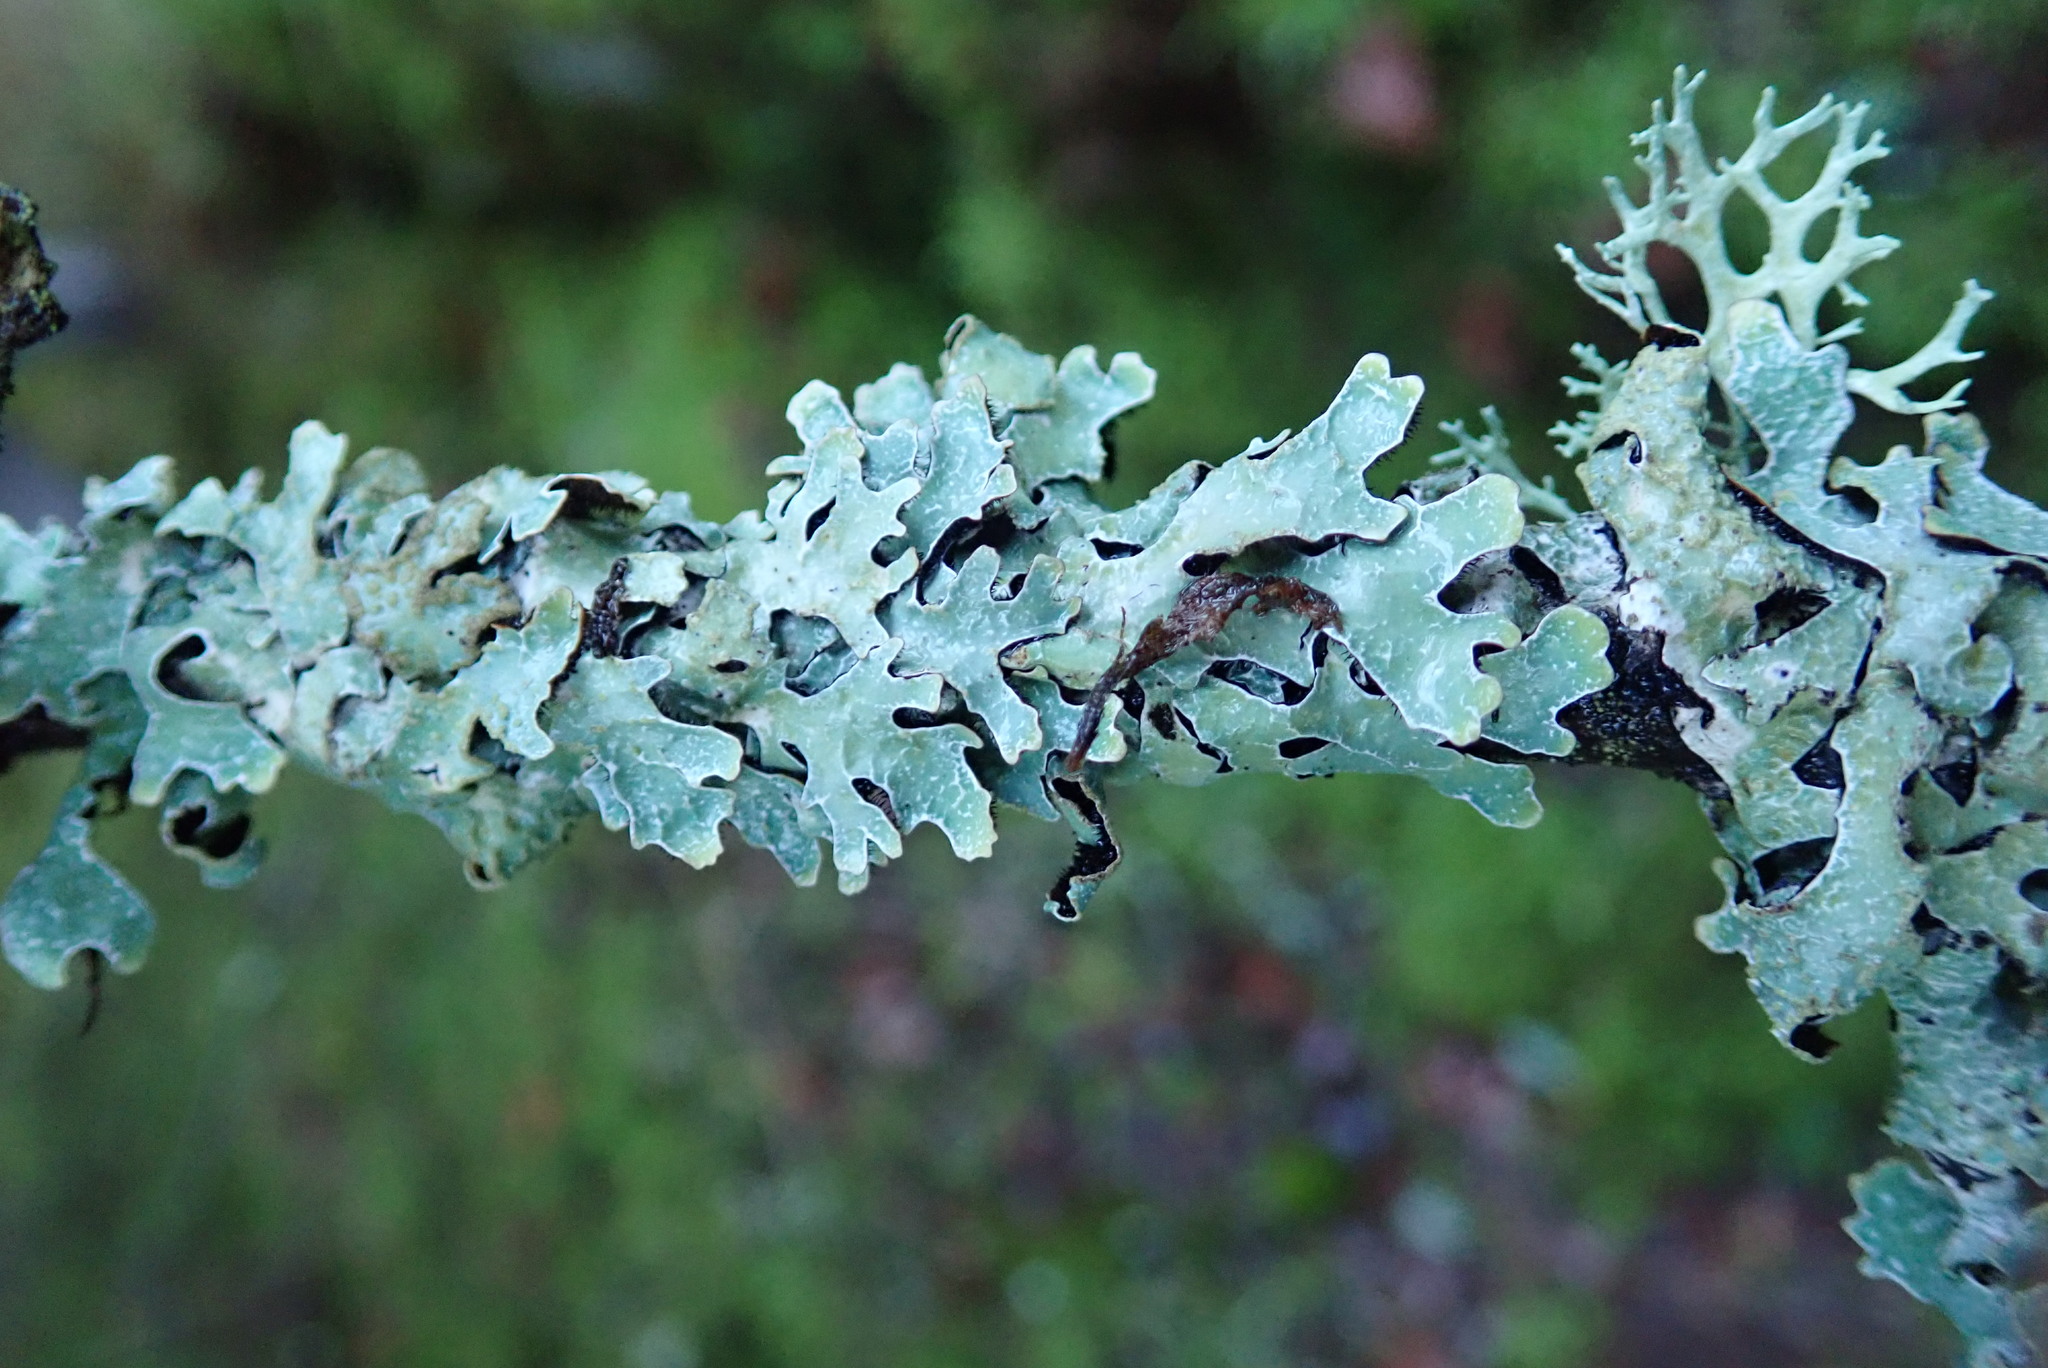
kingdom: Fungi
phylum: Ascomycota
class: Lecanoromycetes
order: Lecanorales
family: Parmeliaceae
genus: Parmelia
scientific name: Parmelia sulcata
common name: Netted shield lichen
